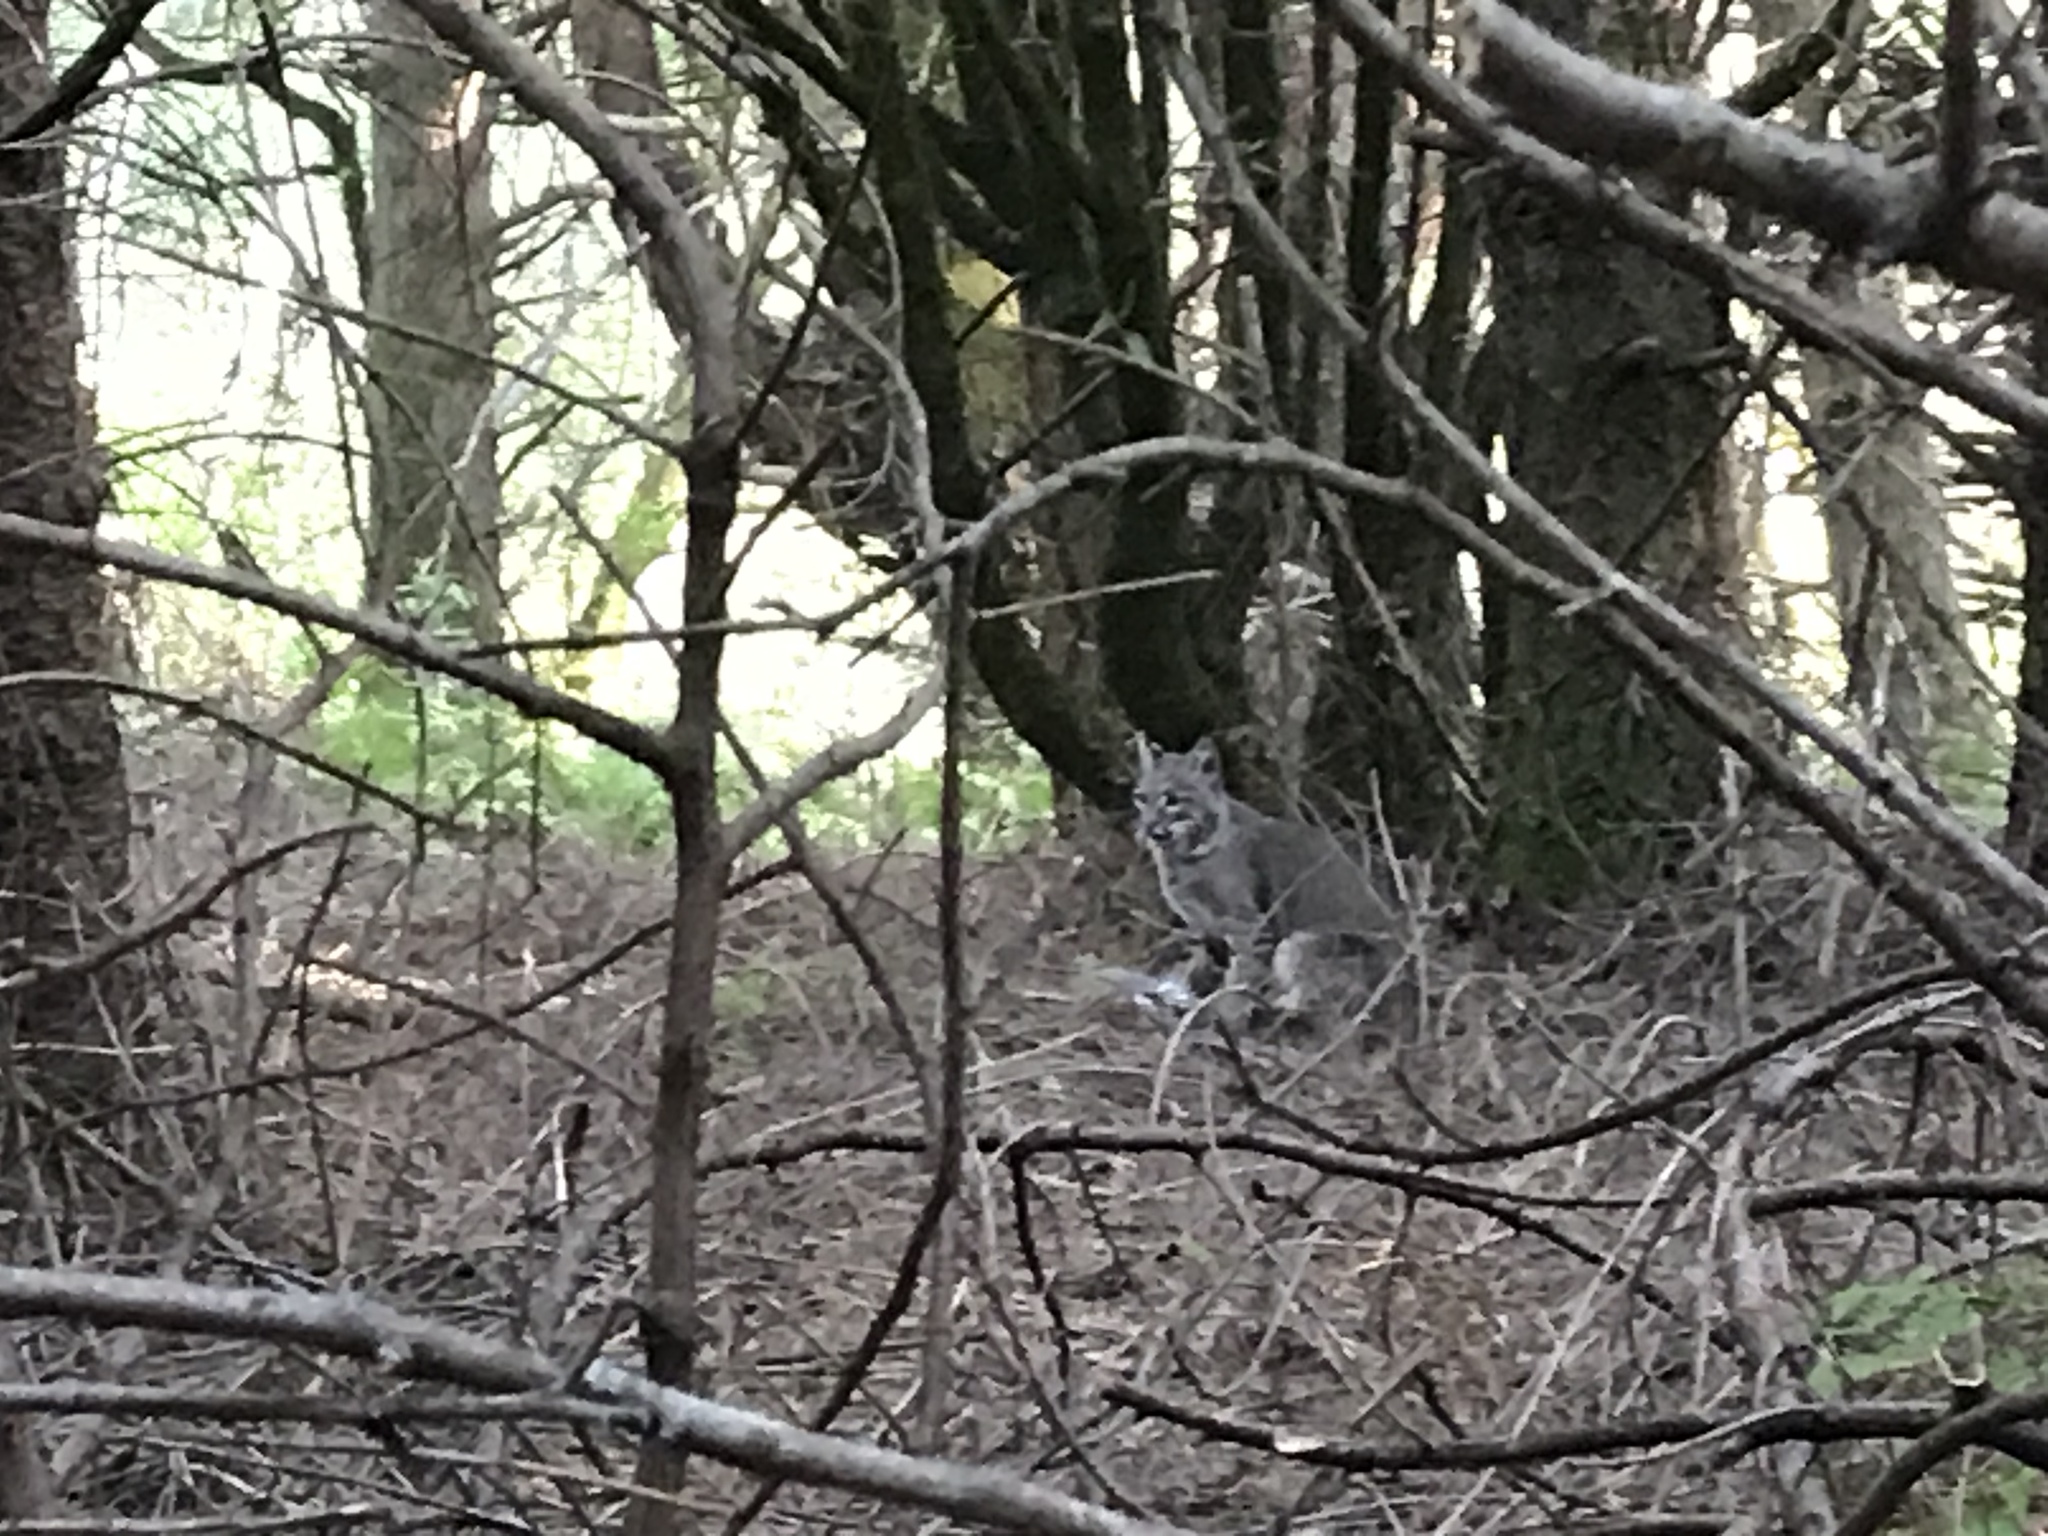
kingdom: Animalia
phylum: Chordata
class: Mammalia
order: Carnivora
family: Felidae
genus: Lynx
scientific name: Lynx rufus
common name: Bobcat
